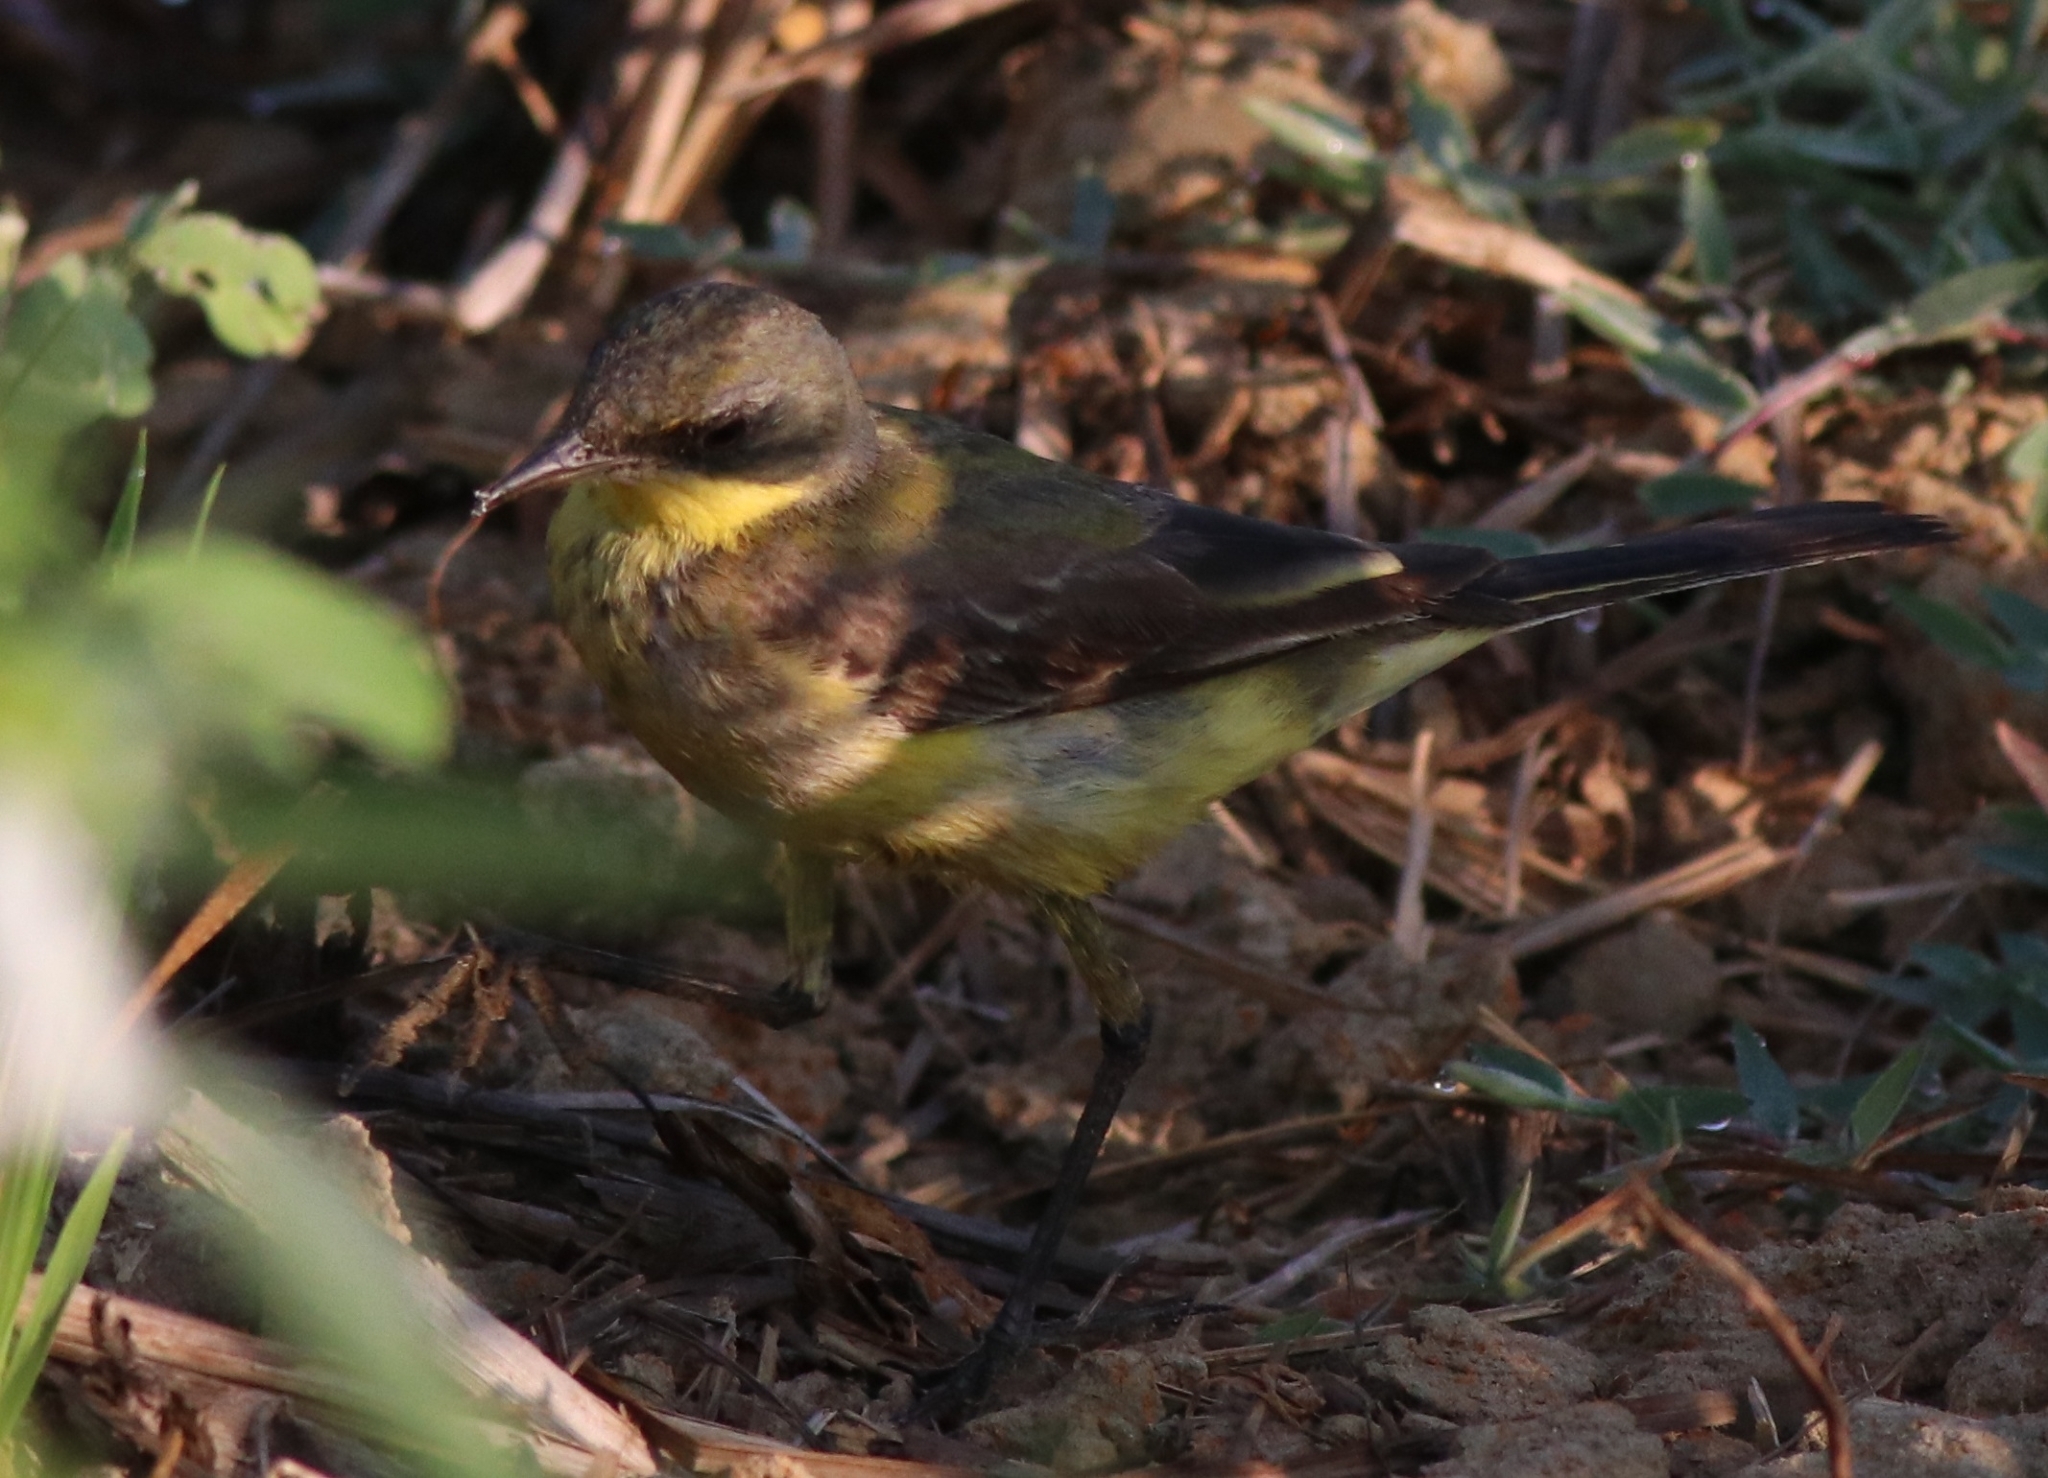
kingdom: Animalia
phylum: Chordata
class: Aves
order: Passeriformes
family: Motacillidae
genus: Motacilla
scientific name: Motacilla flava
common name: Western yellow wagtail
